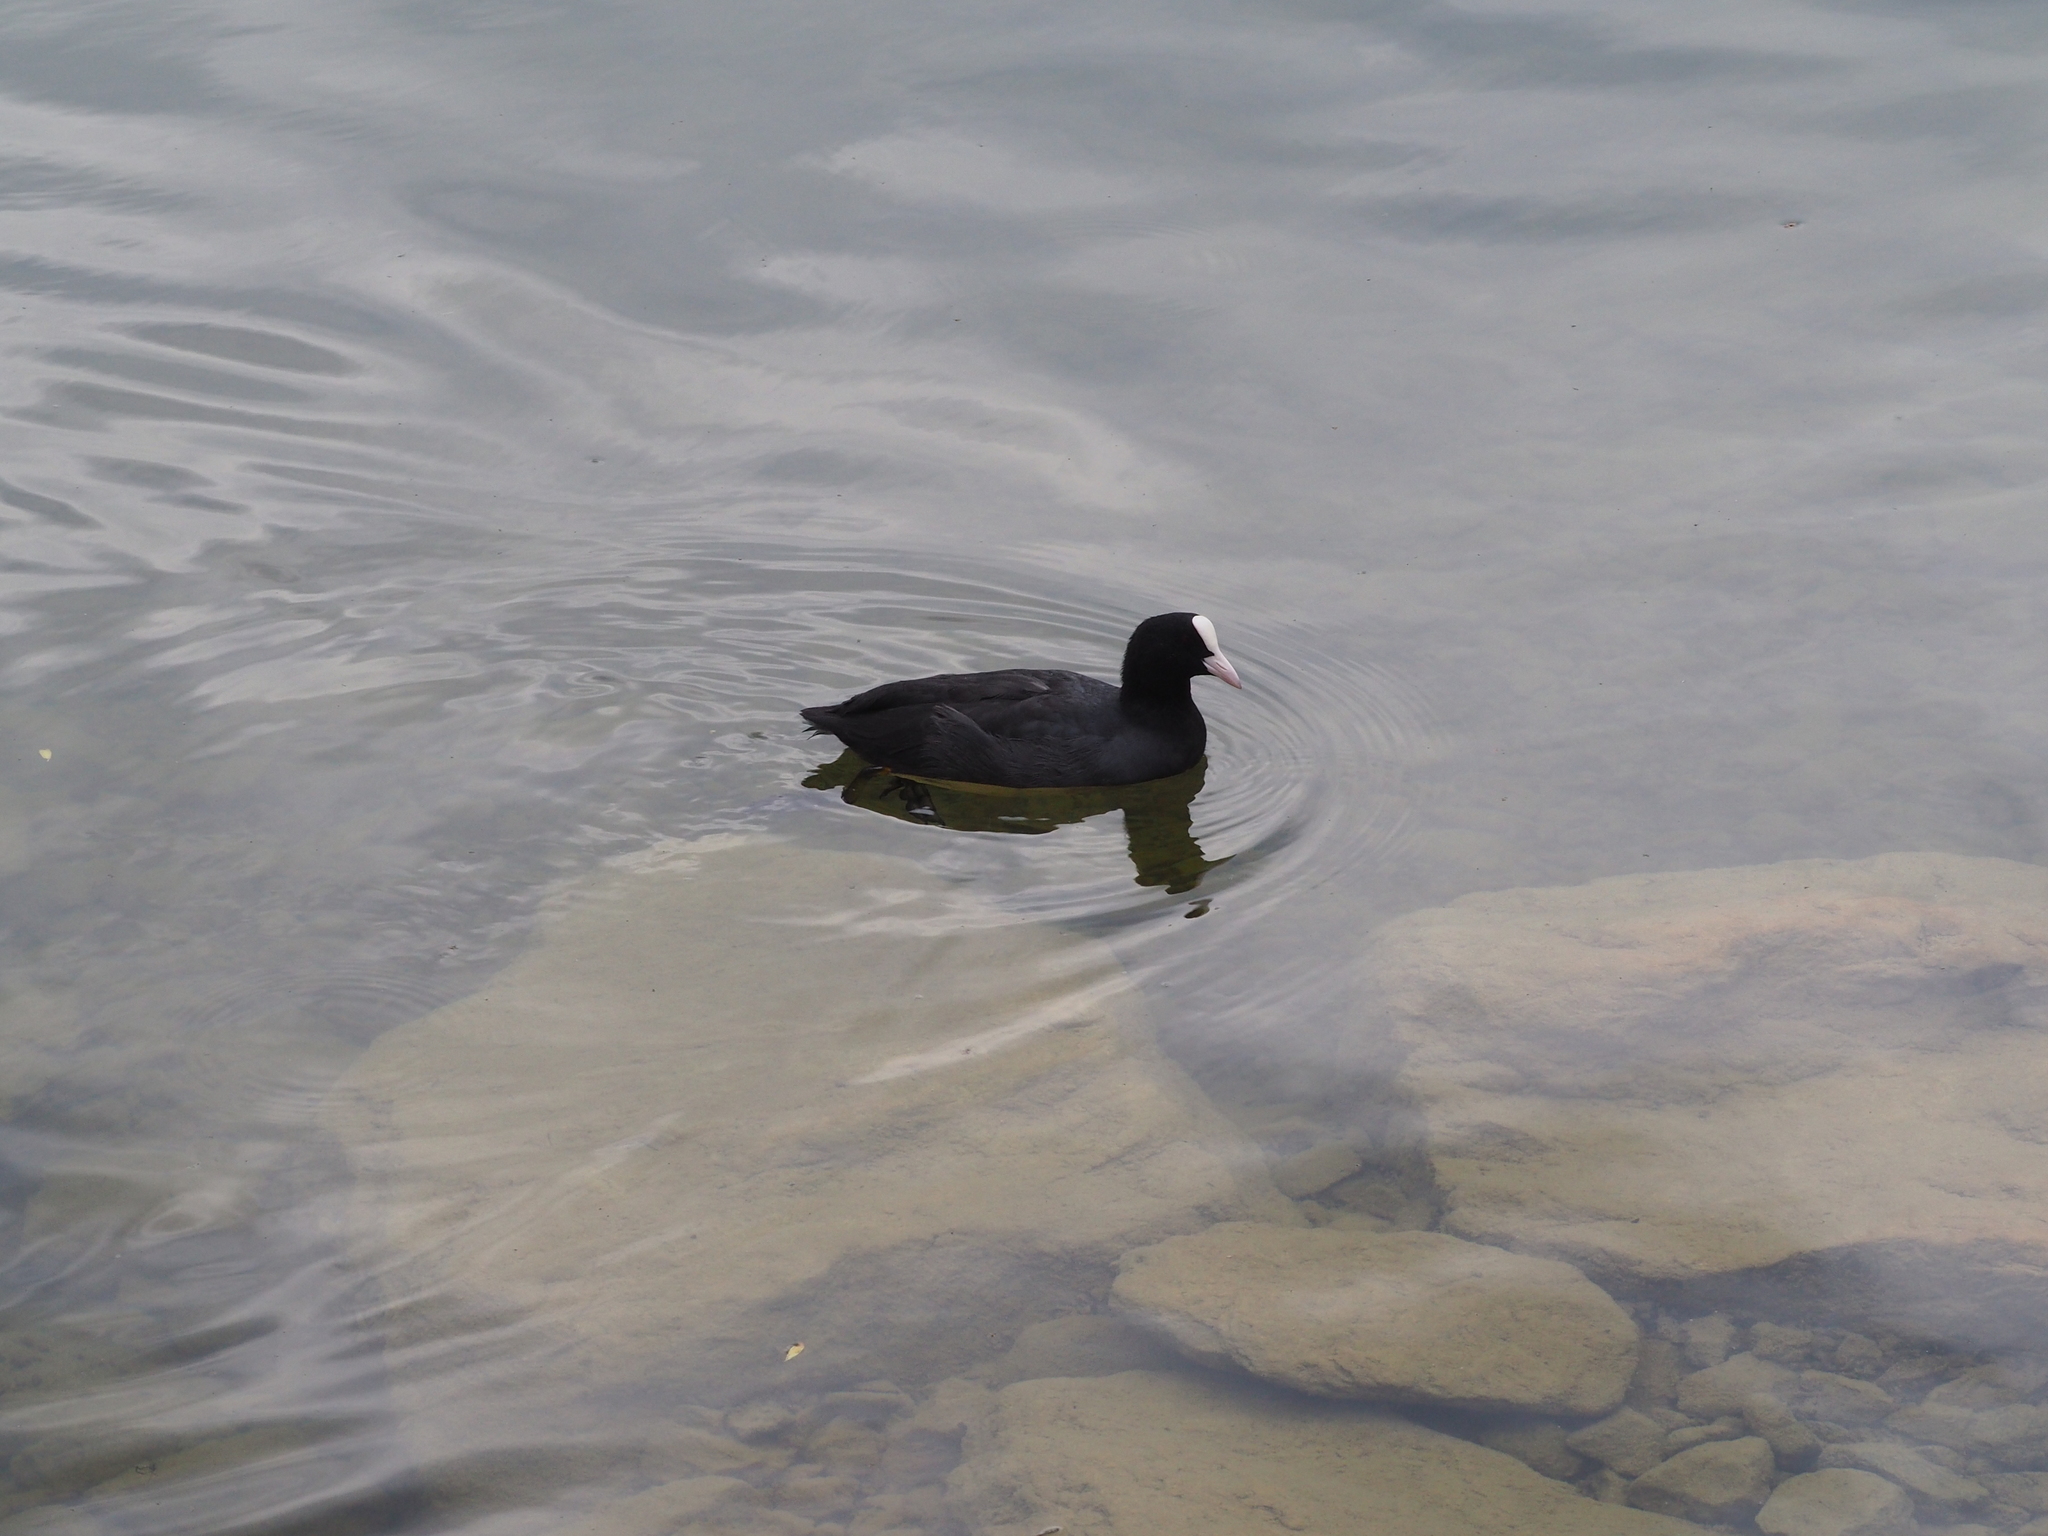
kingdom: Animalia
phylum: Chordata
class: Aves
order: Gruiformes
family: Rallidae
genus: Fulica
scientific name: Fulica atra
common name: Eurasian coot
